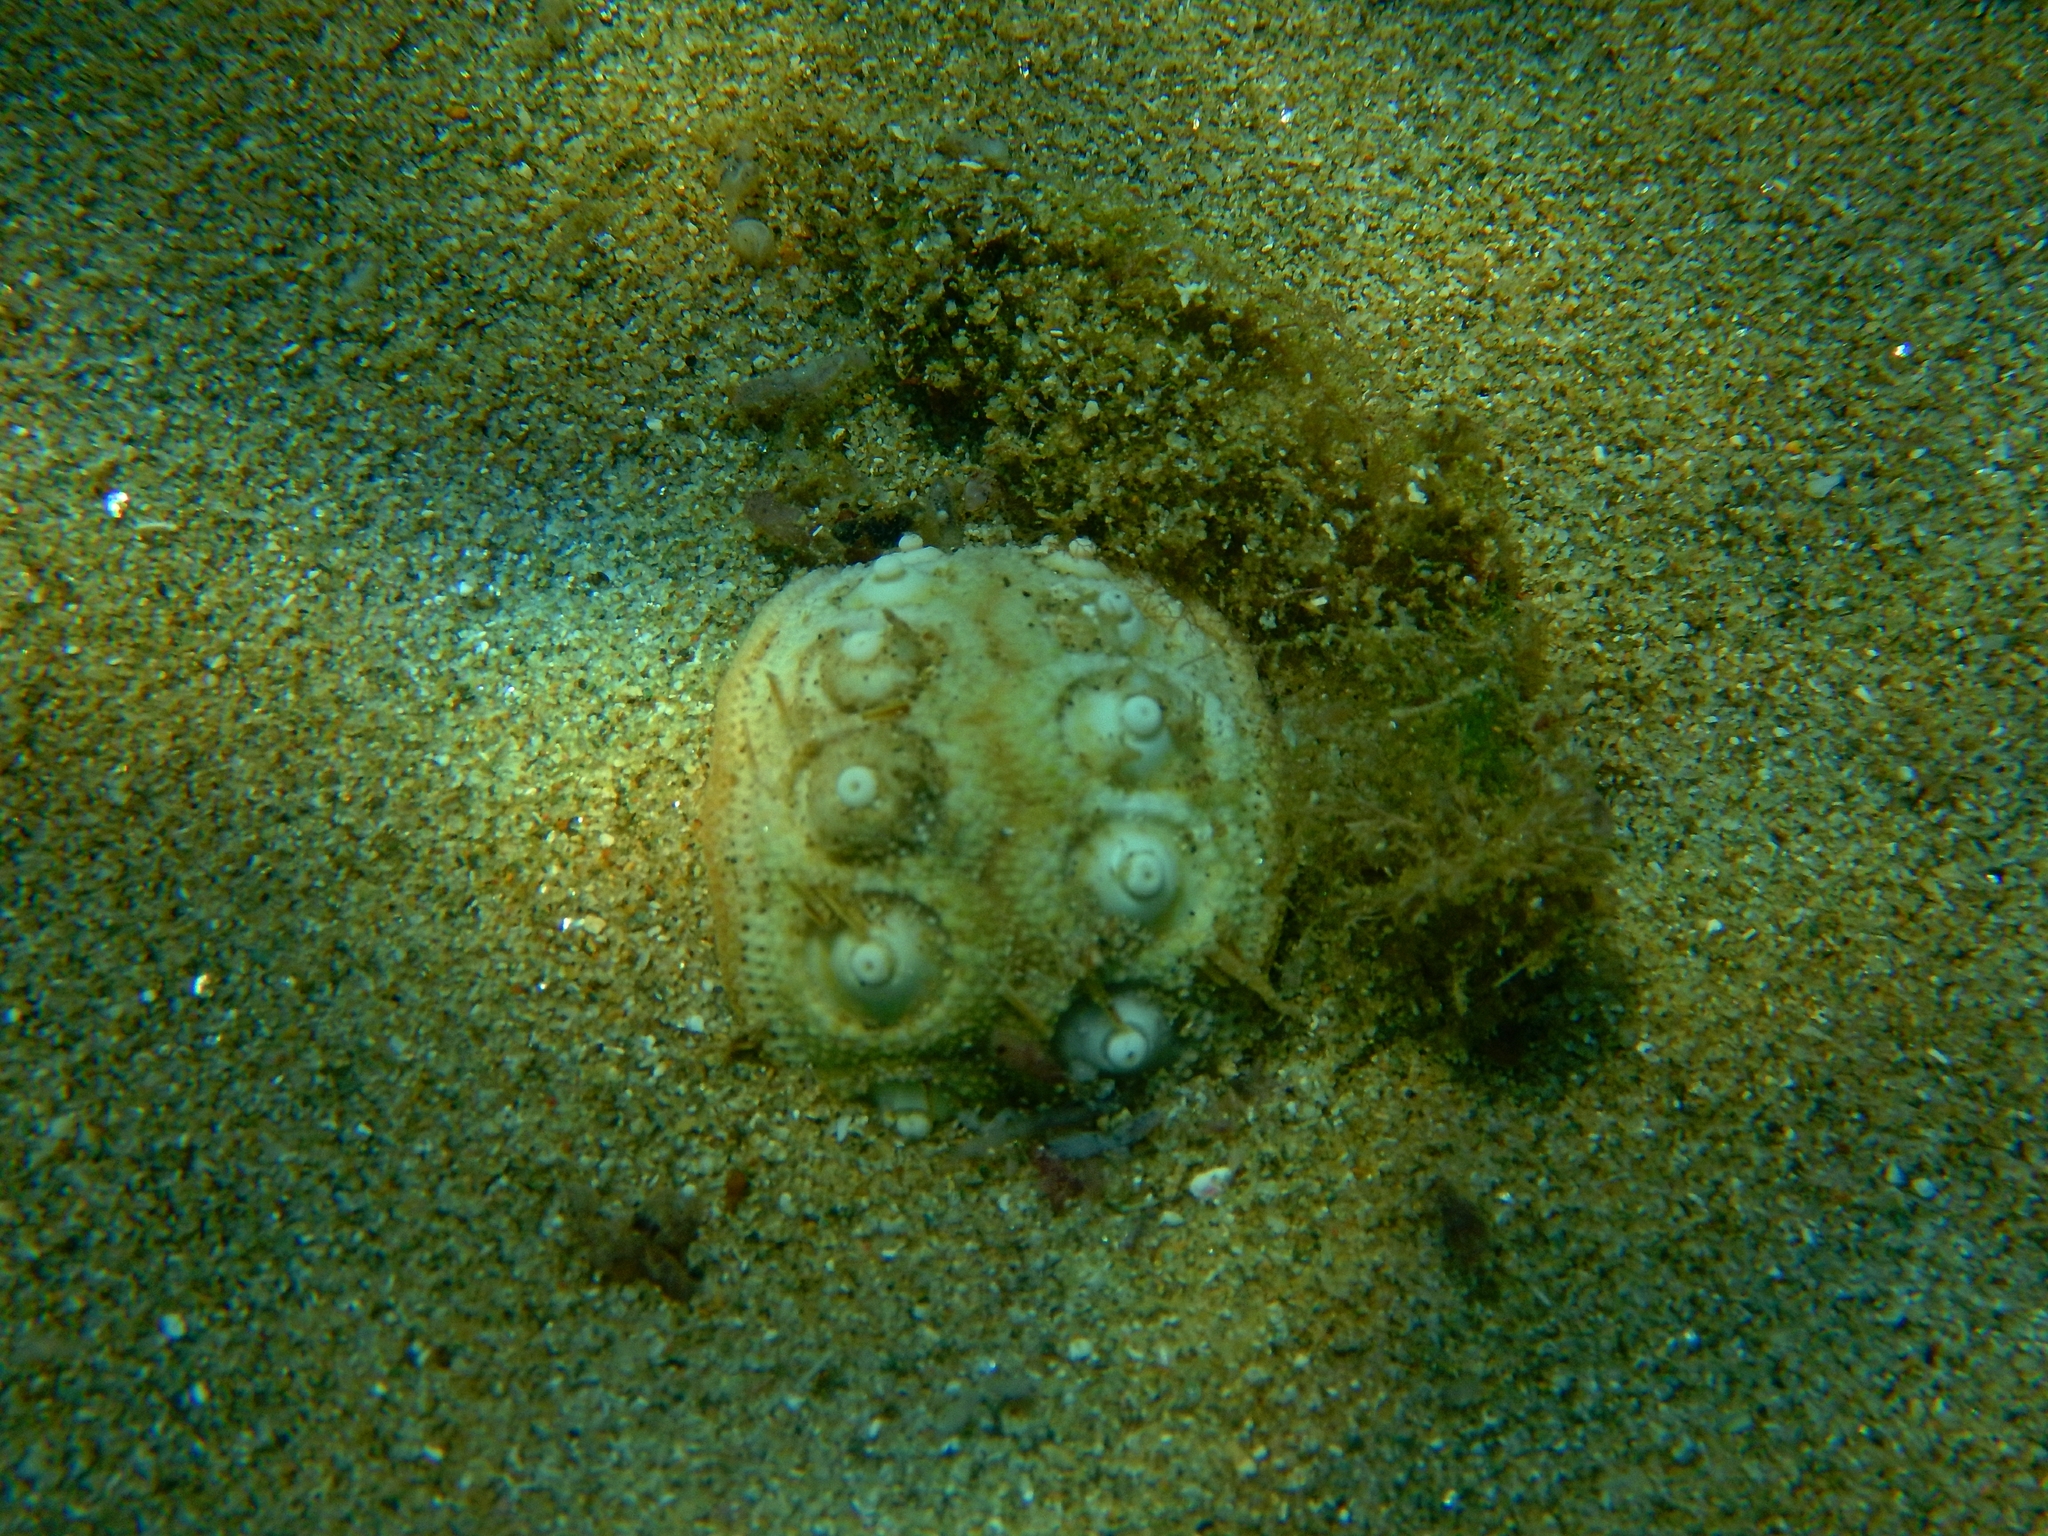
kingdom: Animalia
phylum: Echinodermata
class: Echinoidea
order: Cidaroida
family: Cidaridae
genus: Stylocidaris
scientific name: Stylocidaris affinis
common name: Red lance urchin
